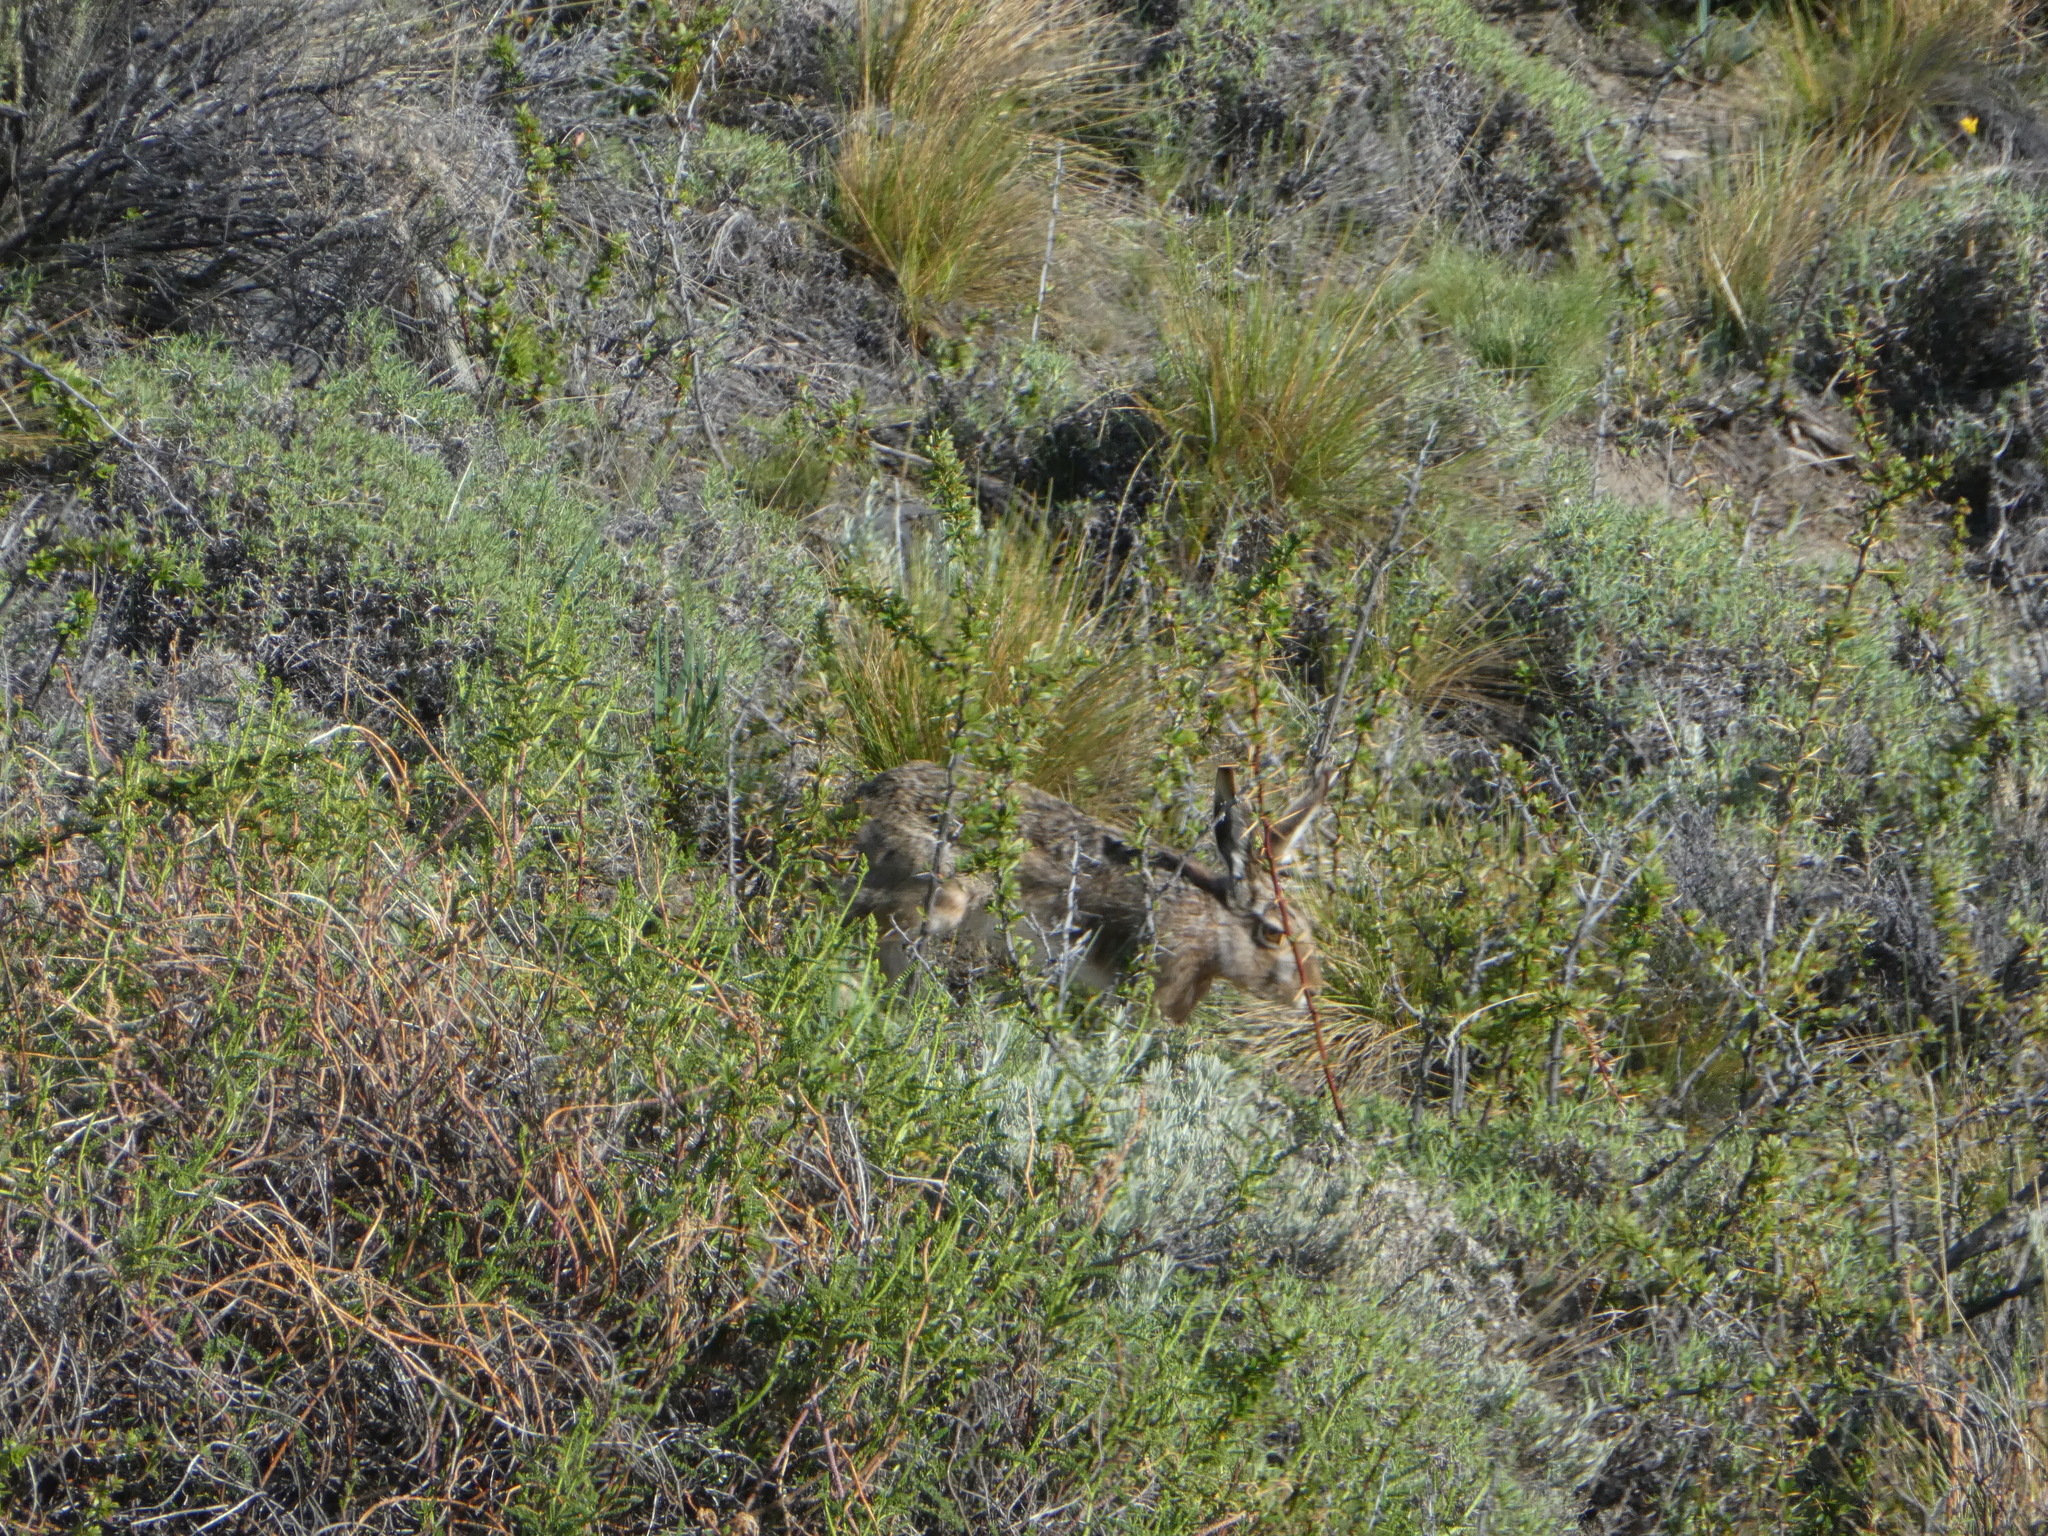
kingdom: Animalia
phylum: Chordata
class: Mammalia
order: Lagomorpha
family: Leporidae
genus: Lepus
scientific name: Lepus europaeus
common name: European hare
